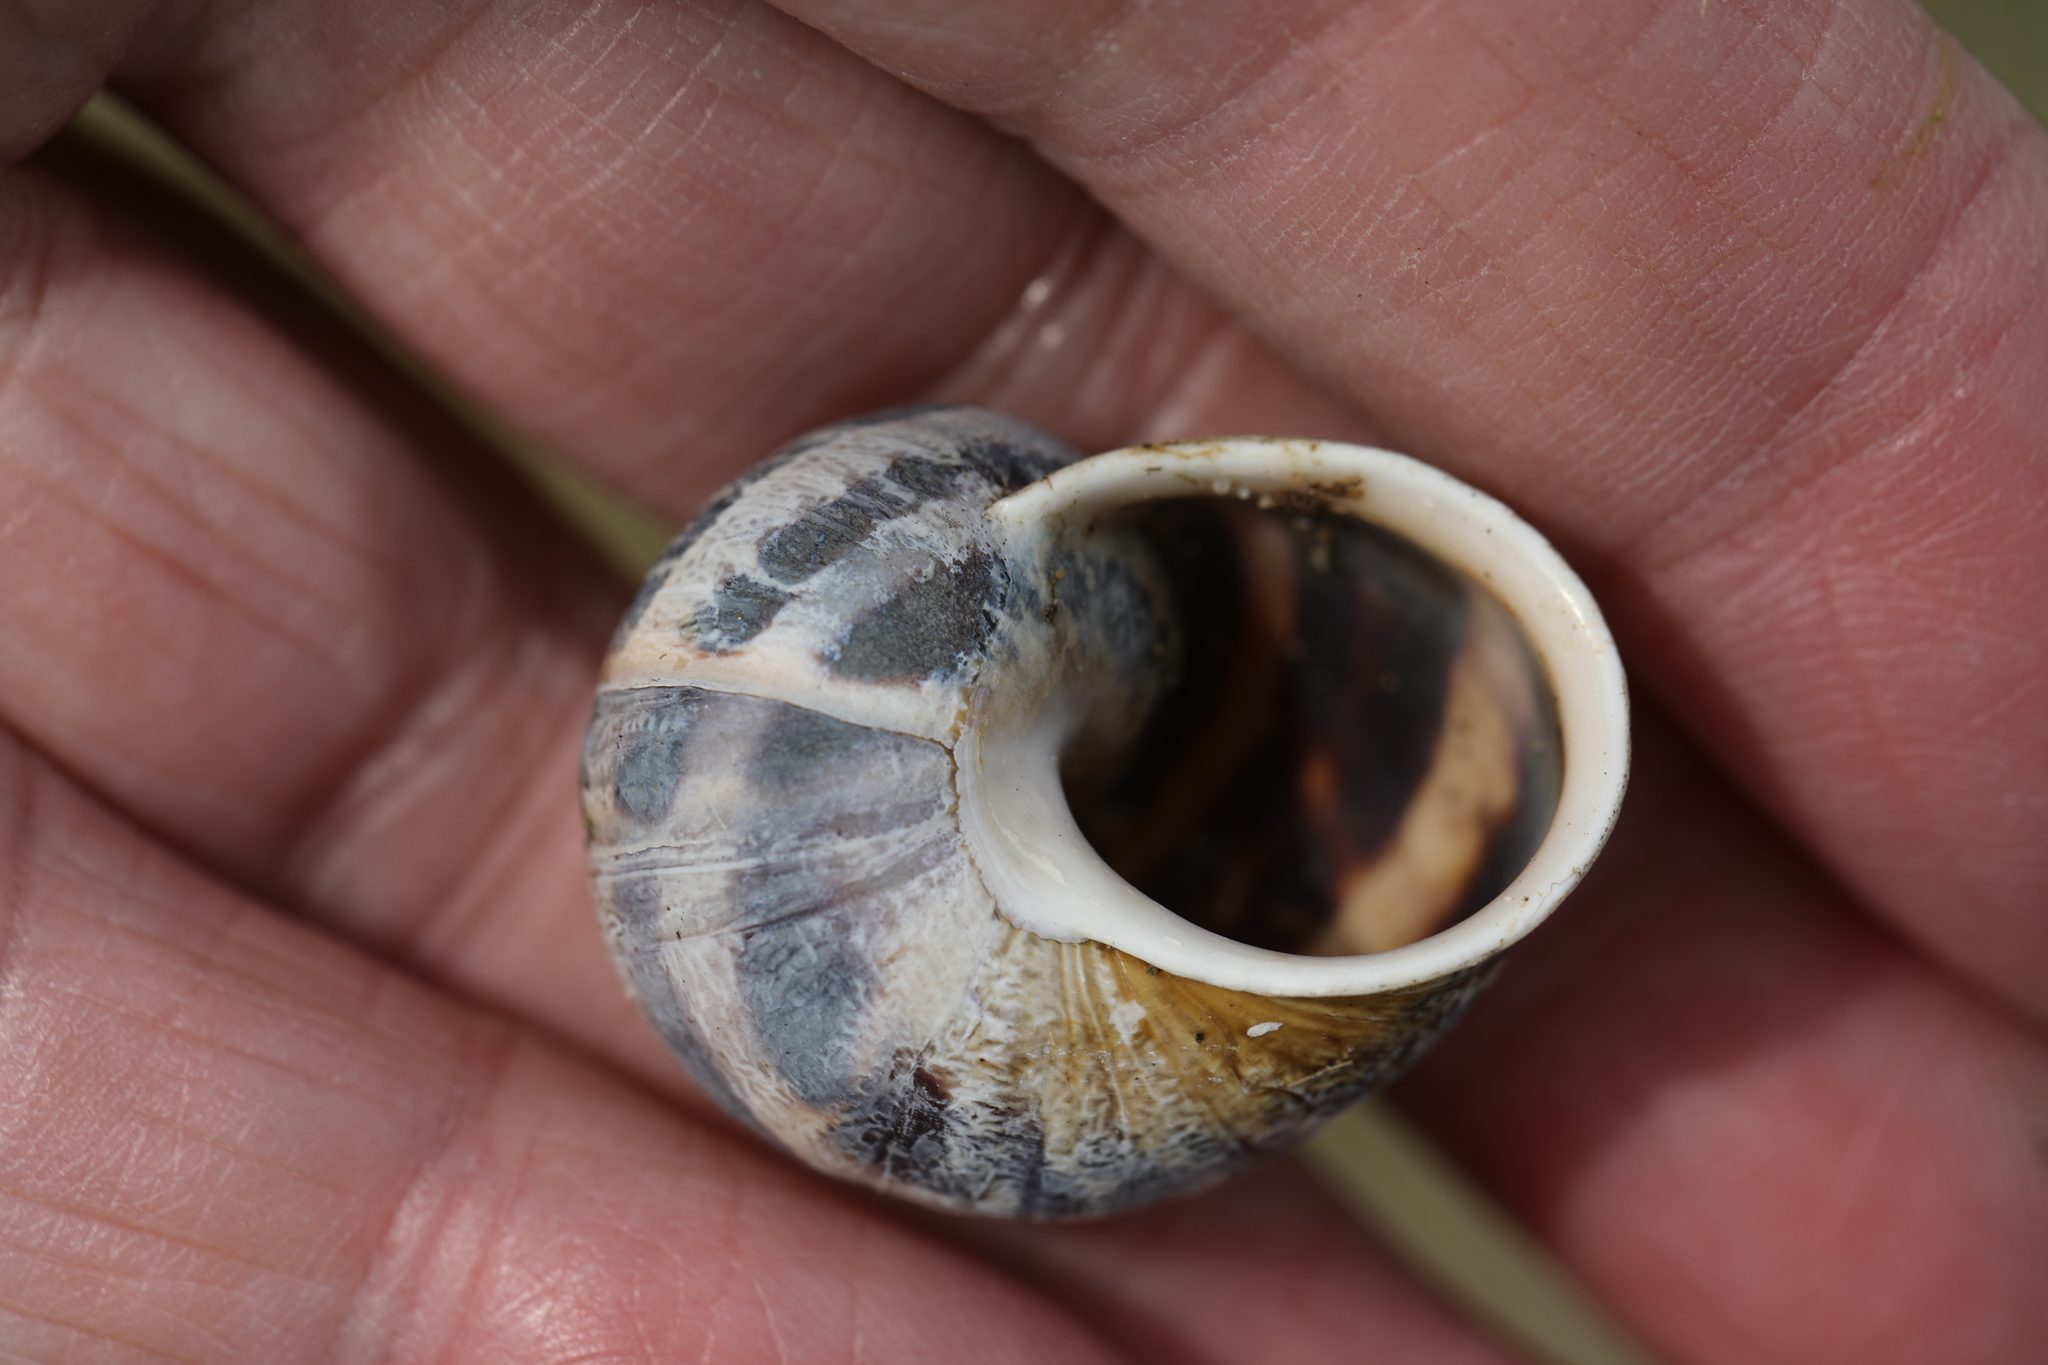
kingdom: Animalia
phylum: Mollusca
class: Gastropoda
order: Stylommatophora
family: Helicidae
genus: Cornu
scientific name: Cornu aspersum
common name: Brown garden snail
